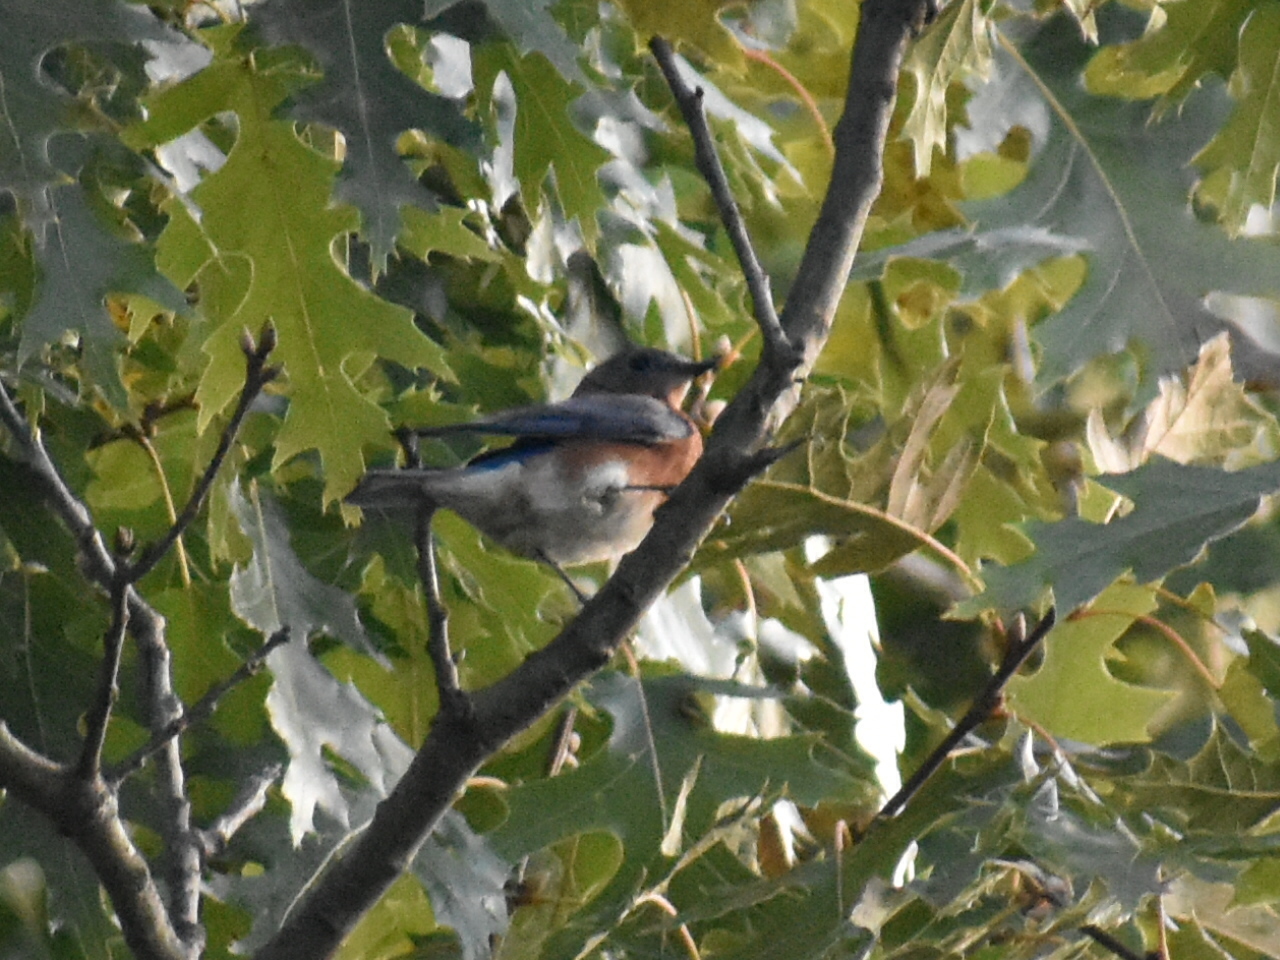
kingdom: Animalia
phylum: Chordata
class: Aves
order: Passeriformes
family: Turdidae
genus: Sialia
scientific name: Sialia sialis
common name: Eastern bluebird
